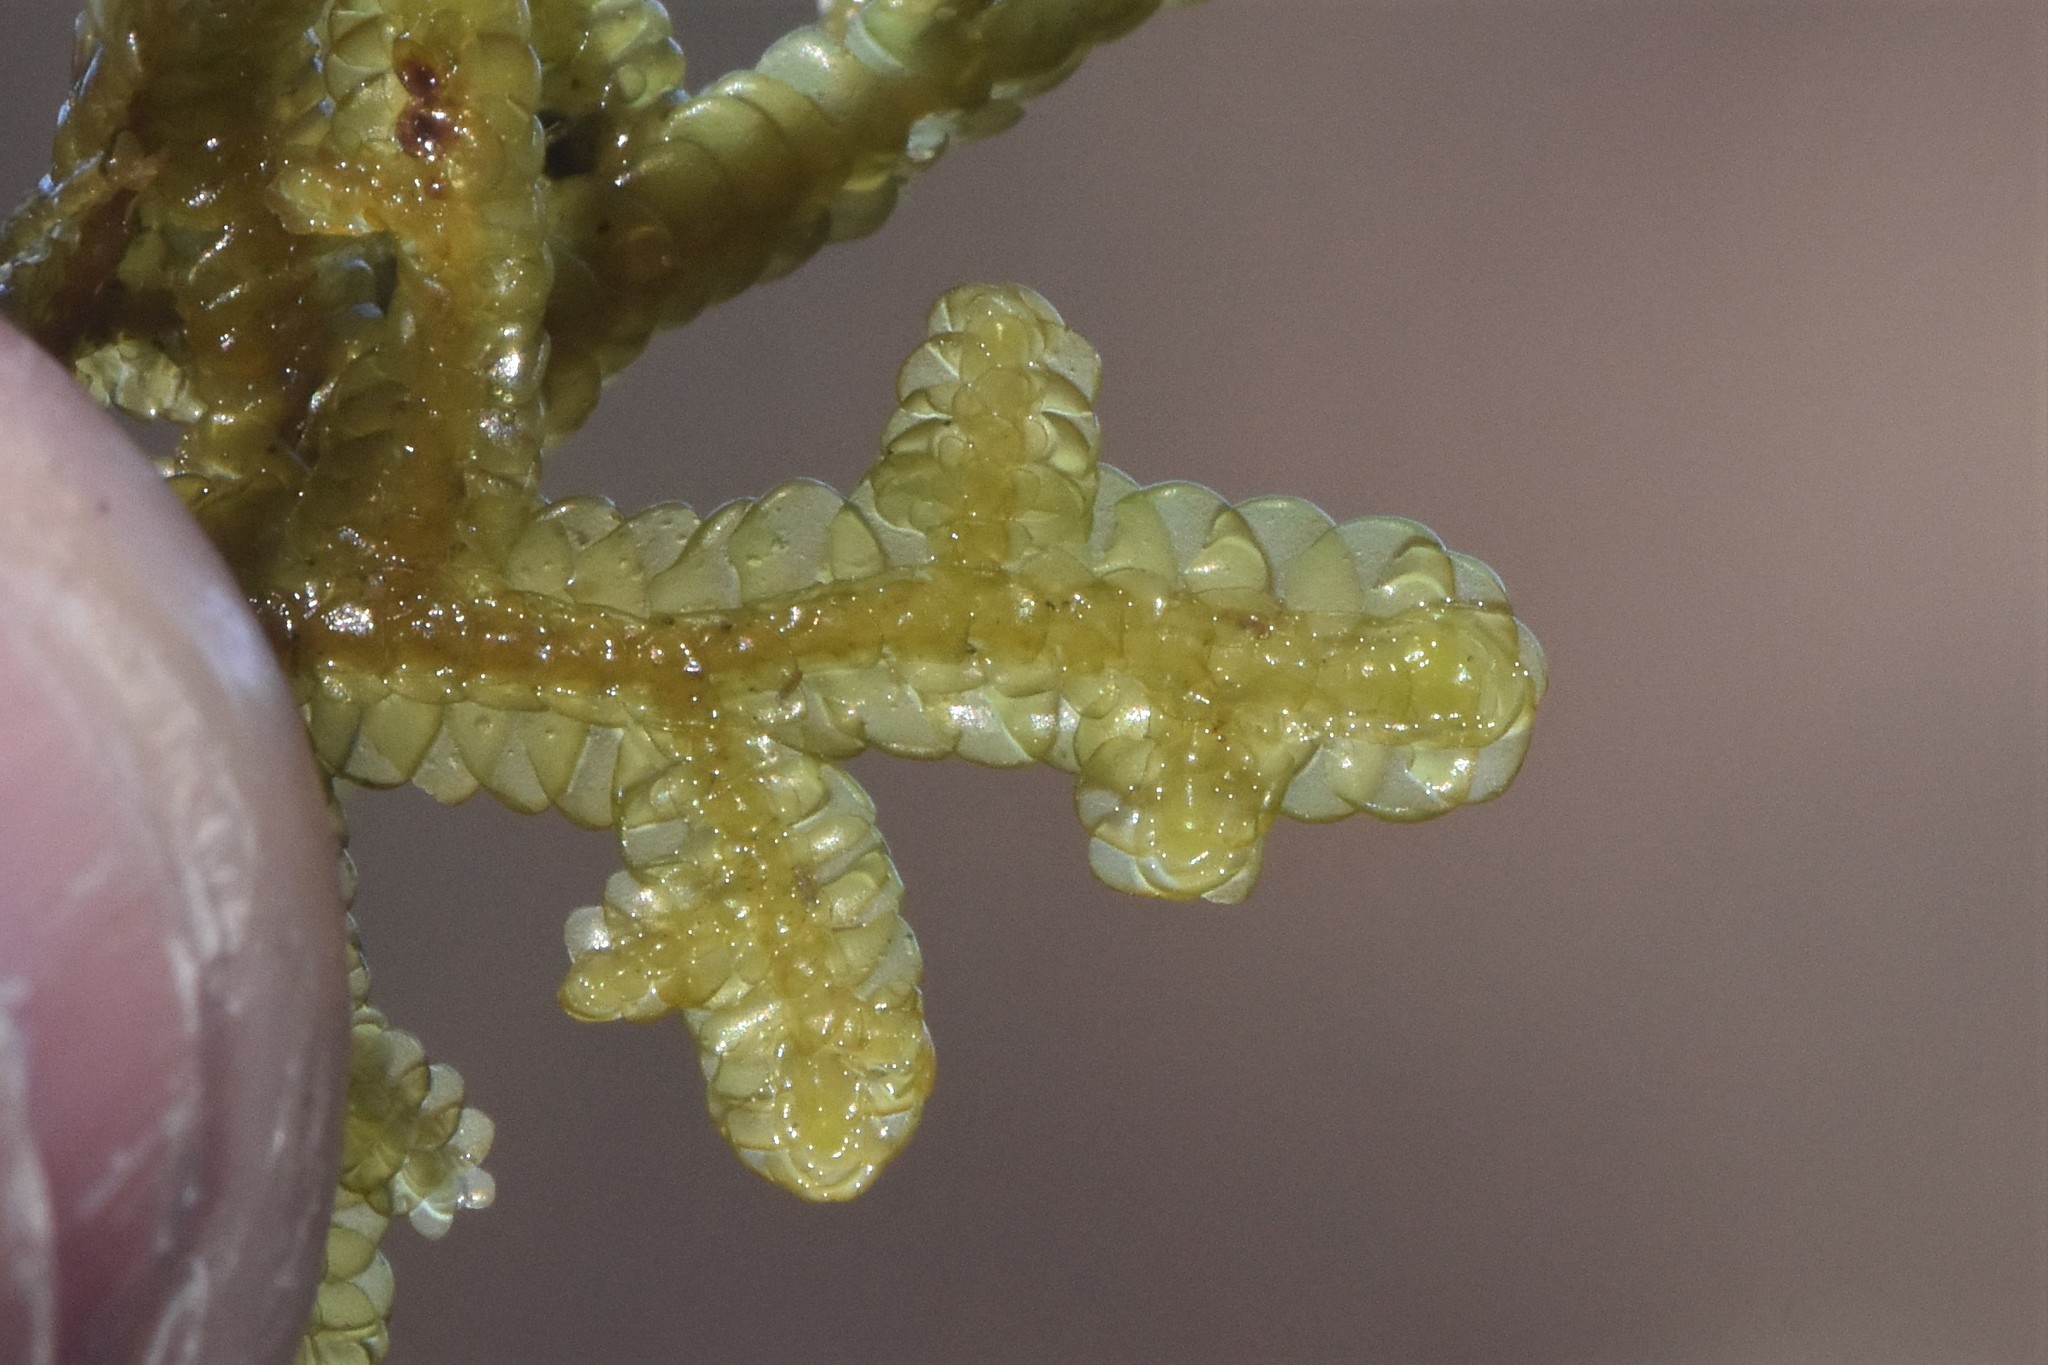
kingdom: Plantae
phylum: Marchantiophyta
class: Jungermanniopsida
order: Porellales
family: Porellaceae
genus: Porella
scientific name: Porella navicularis
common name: Tree ruffle liverwort
